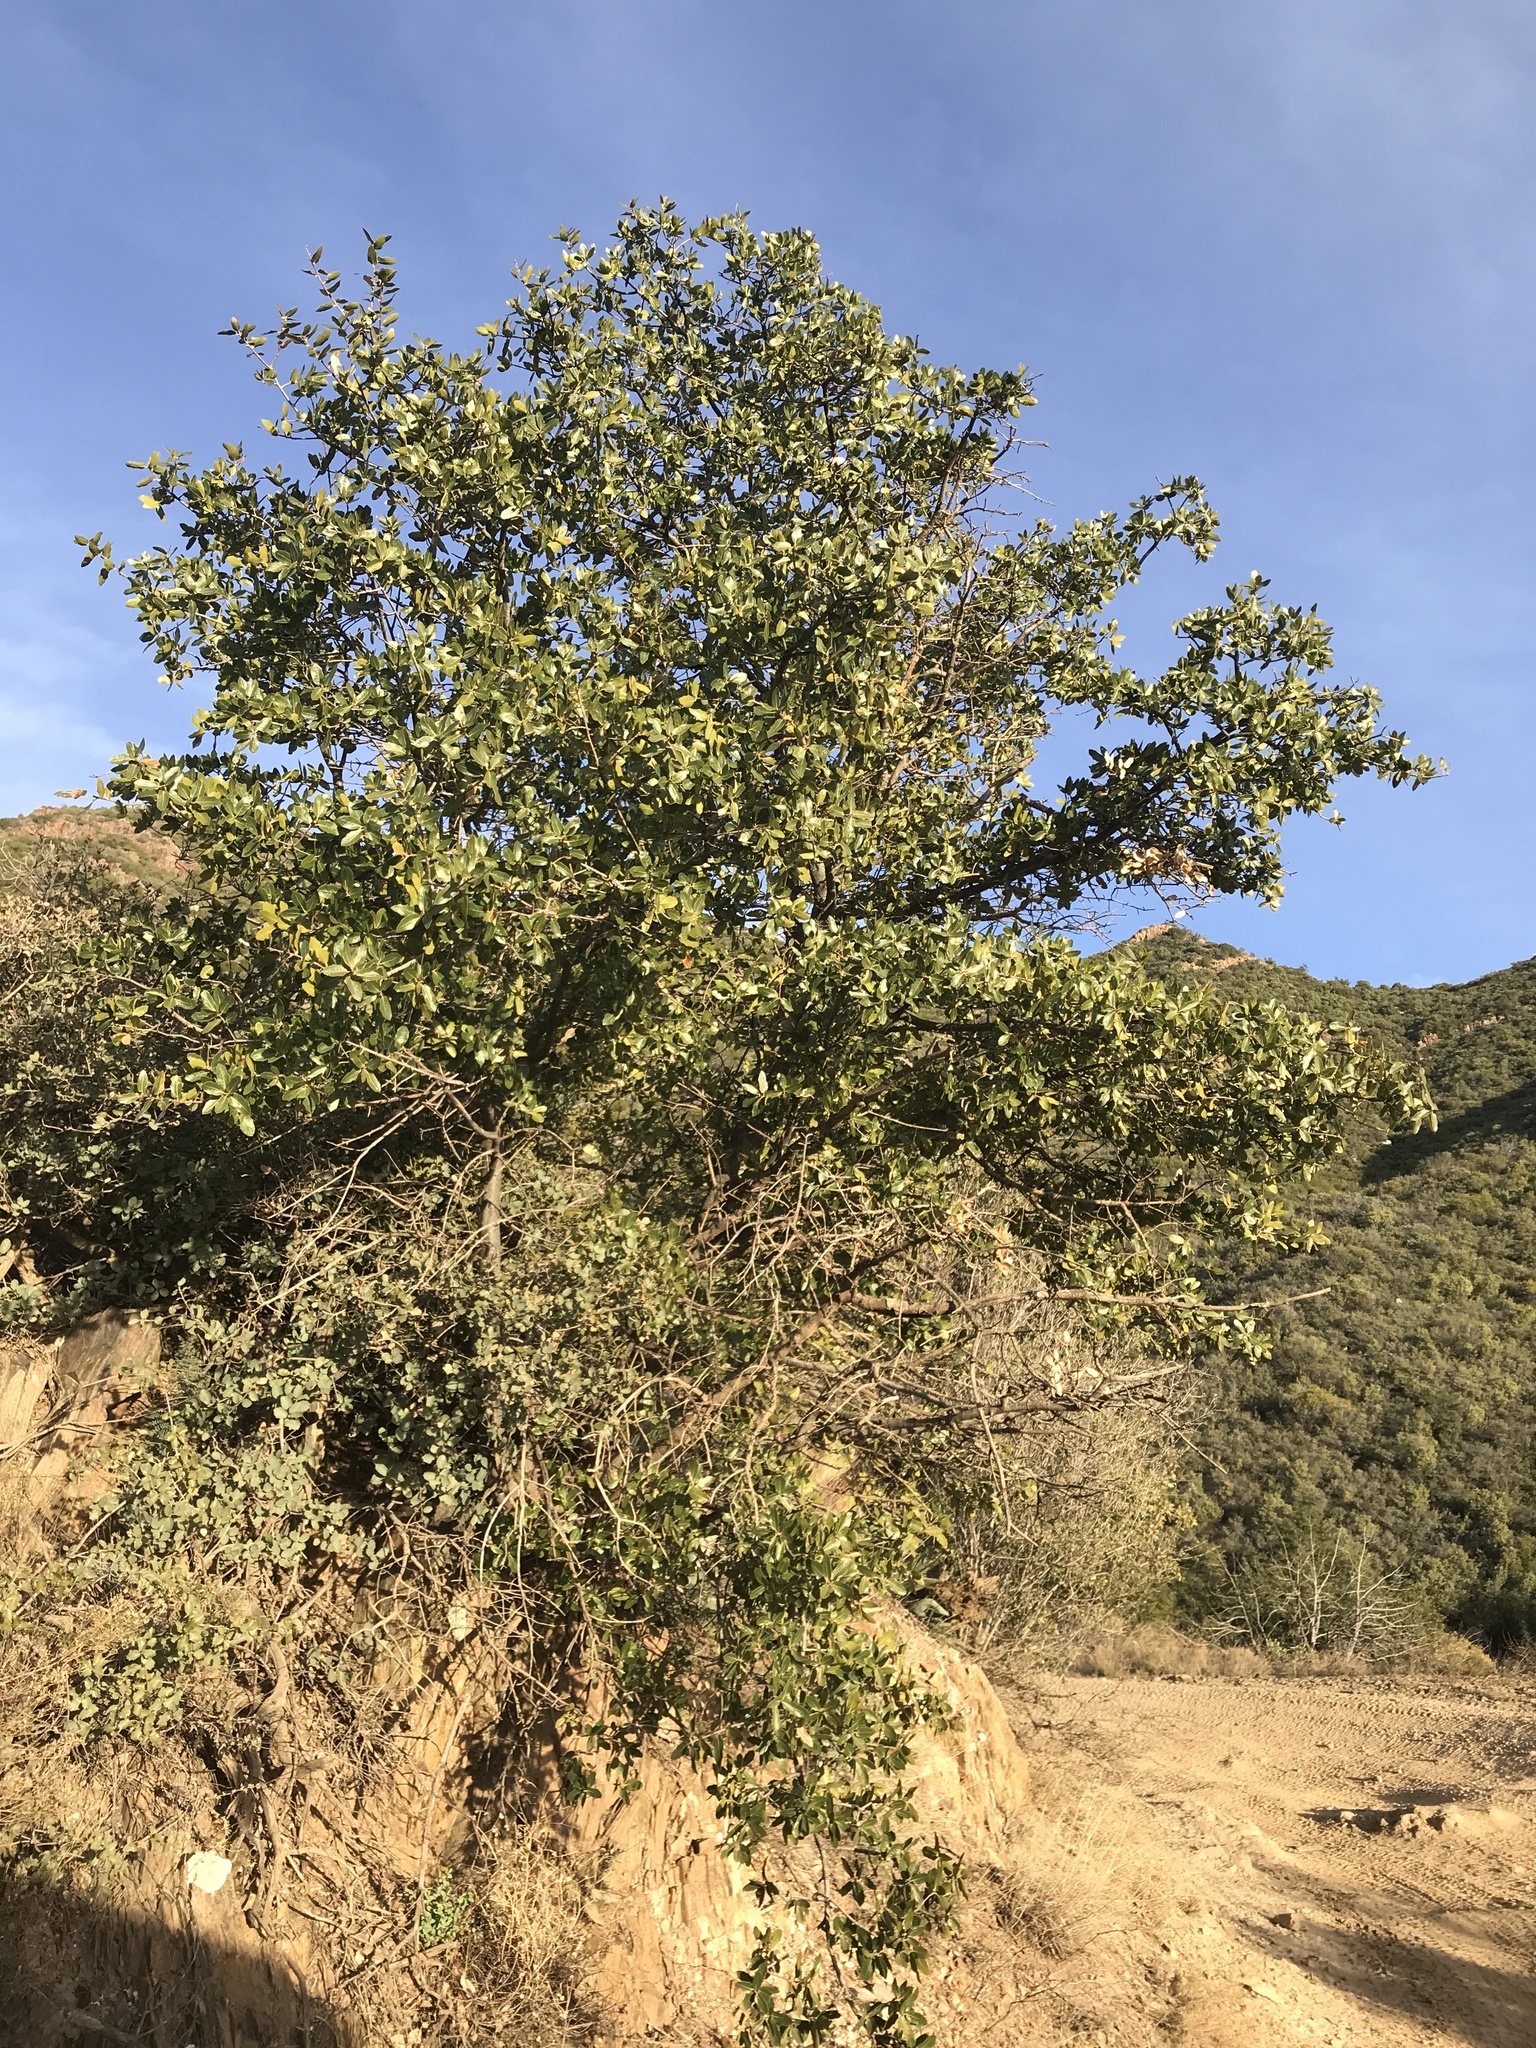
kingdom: Plantae
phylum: Tracheophyta
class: Magnoliopsida
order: Fagales
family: Fagaceae
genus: Quercus
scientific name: Quercus emoryi
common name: Emory oak
